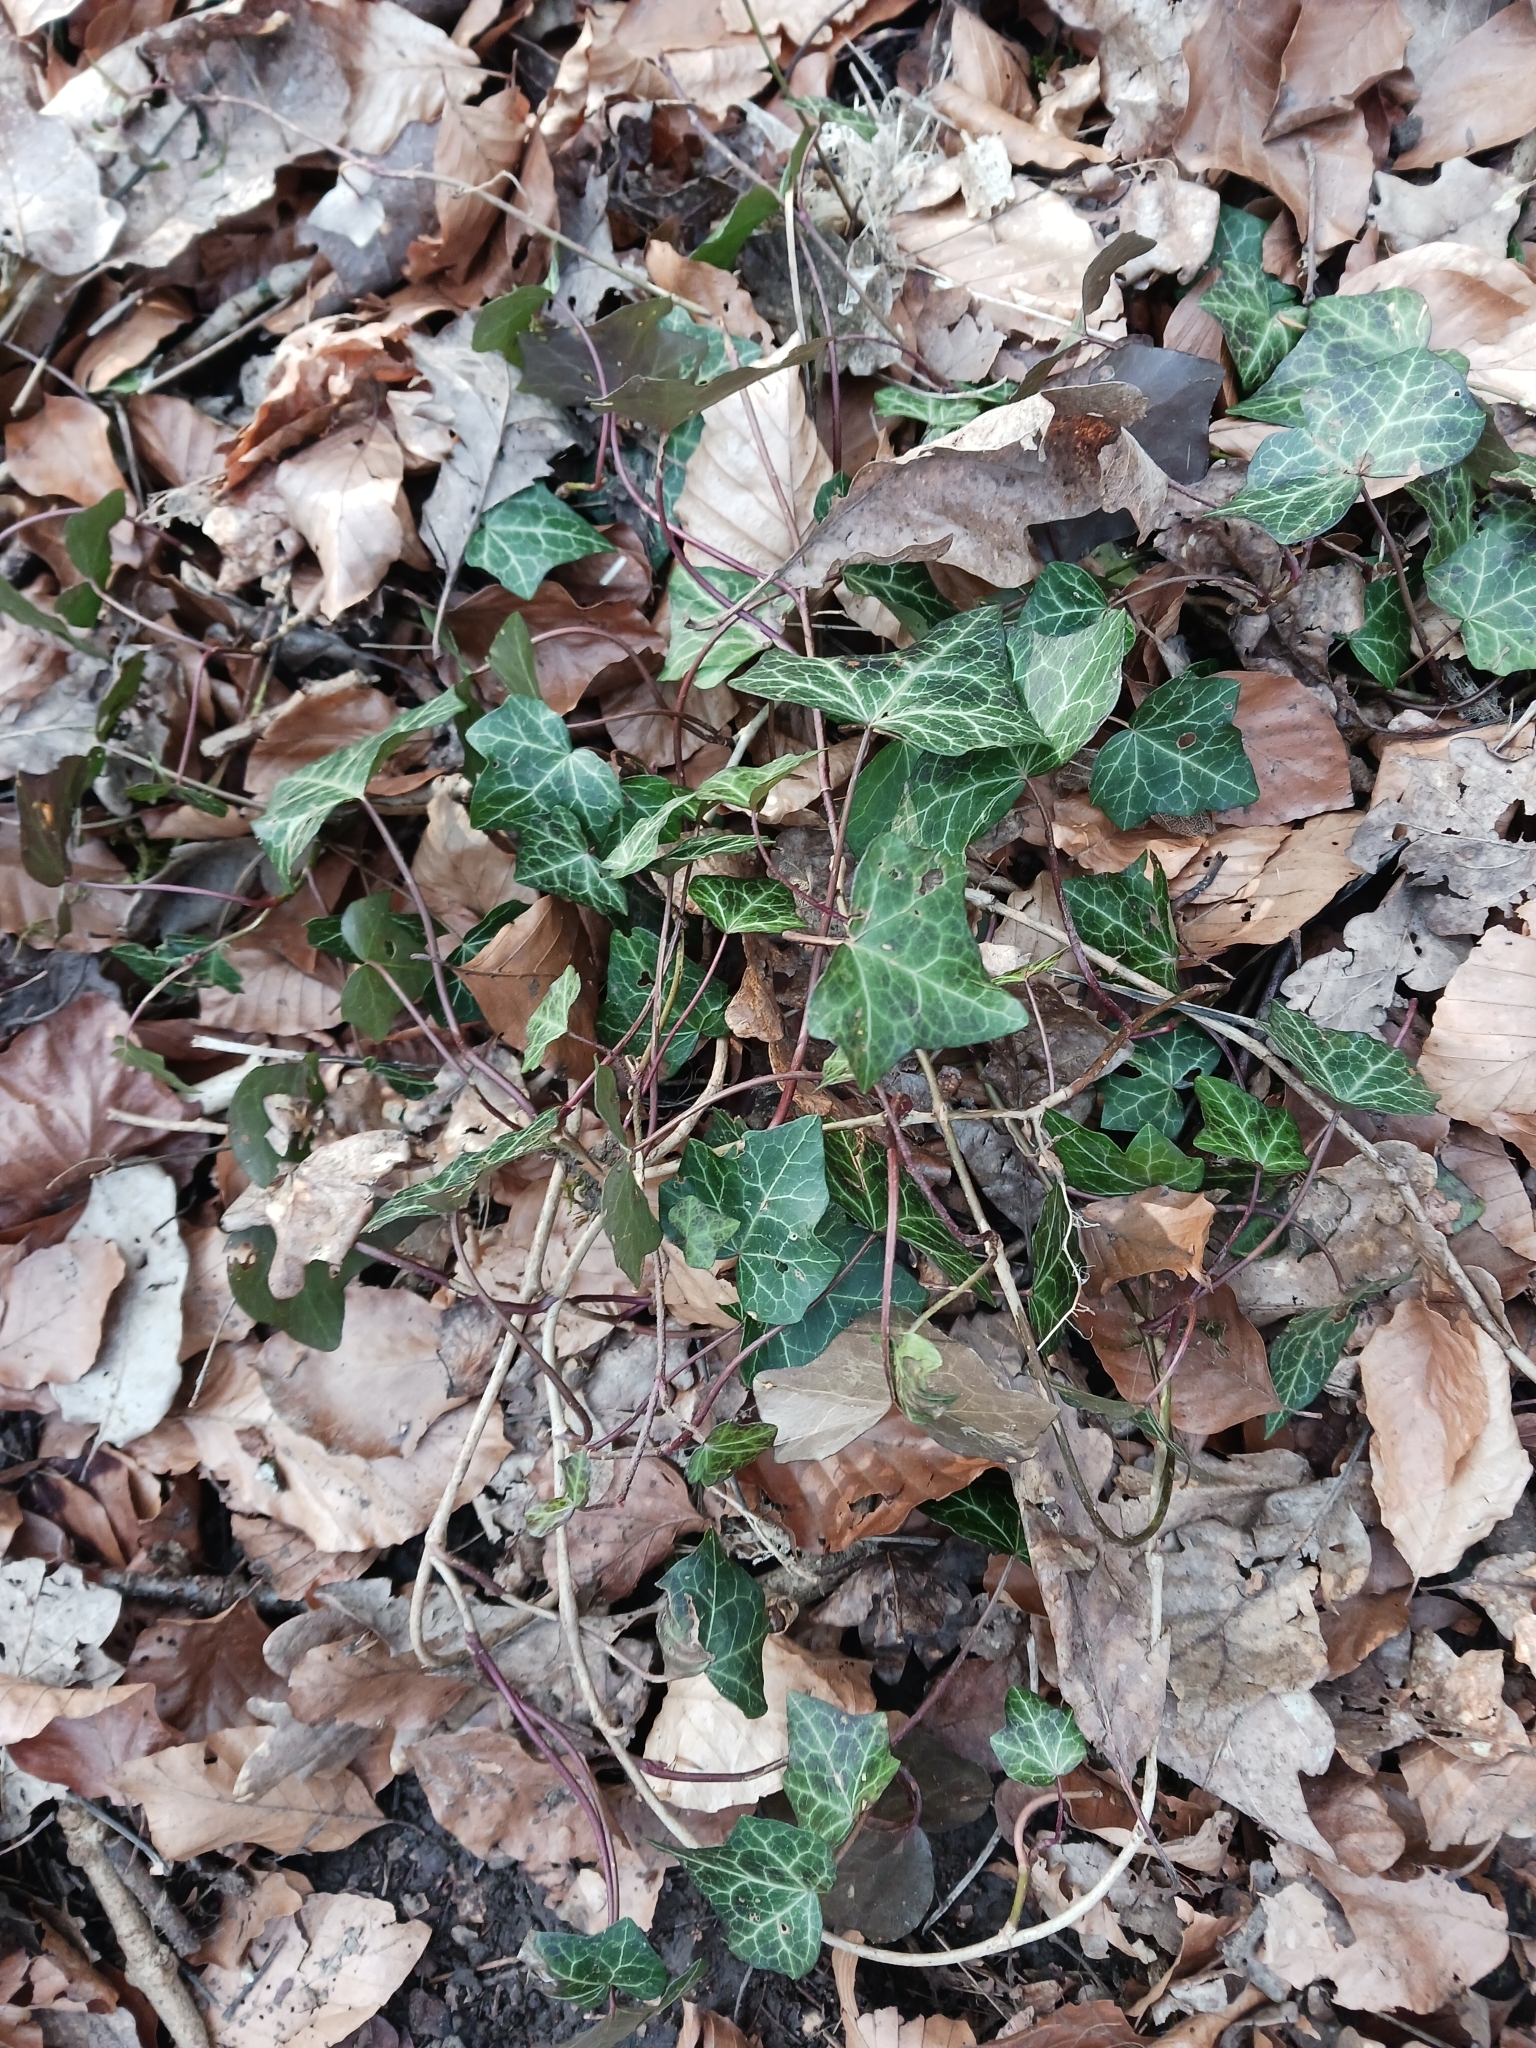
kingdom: Plantae
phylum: Tracheophyta
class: Magnoliopsida
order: Apiales
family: Araliaceae
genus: Hedera
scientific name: Hedera helix
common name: Ivy
